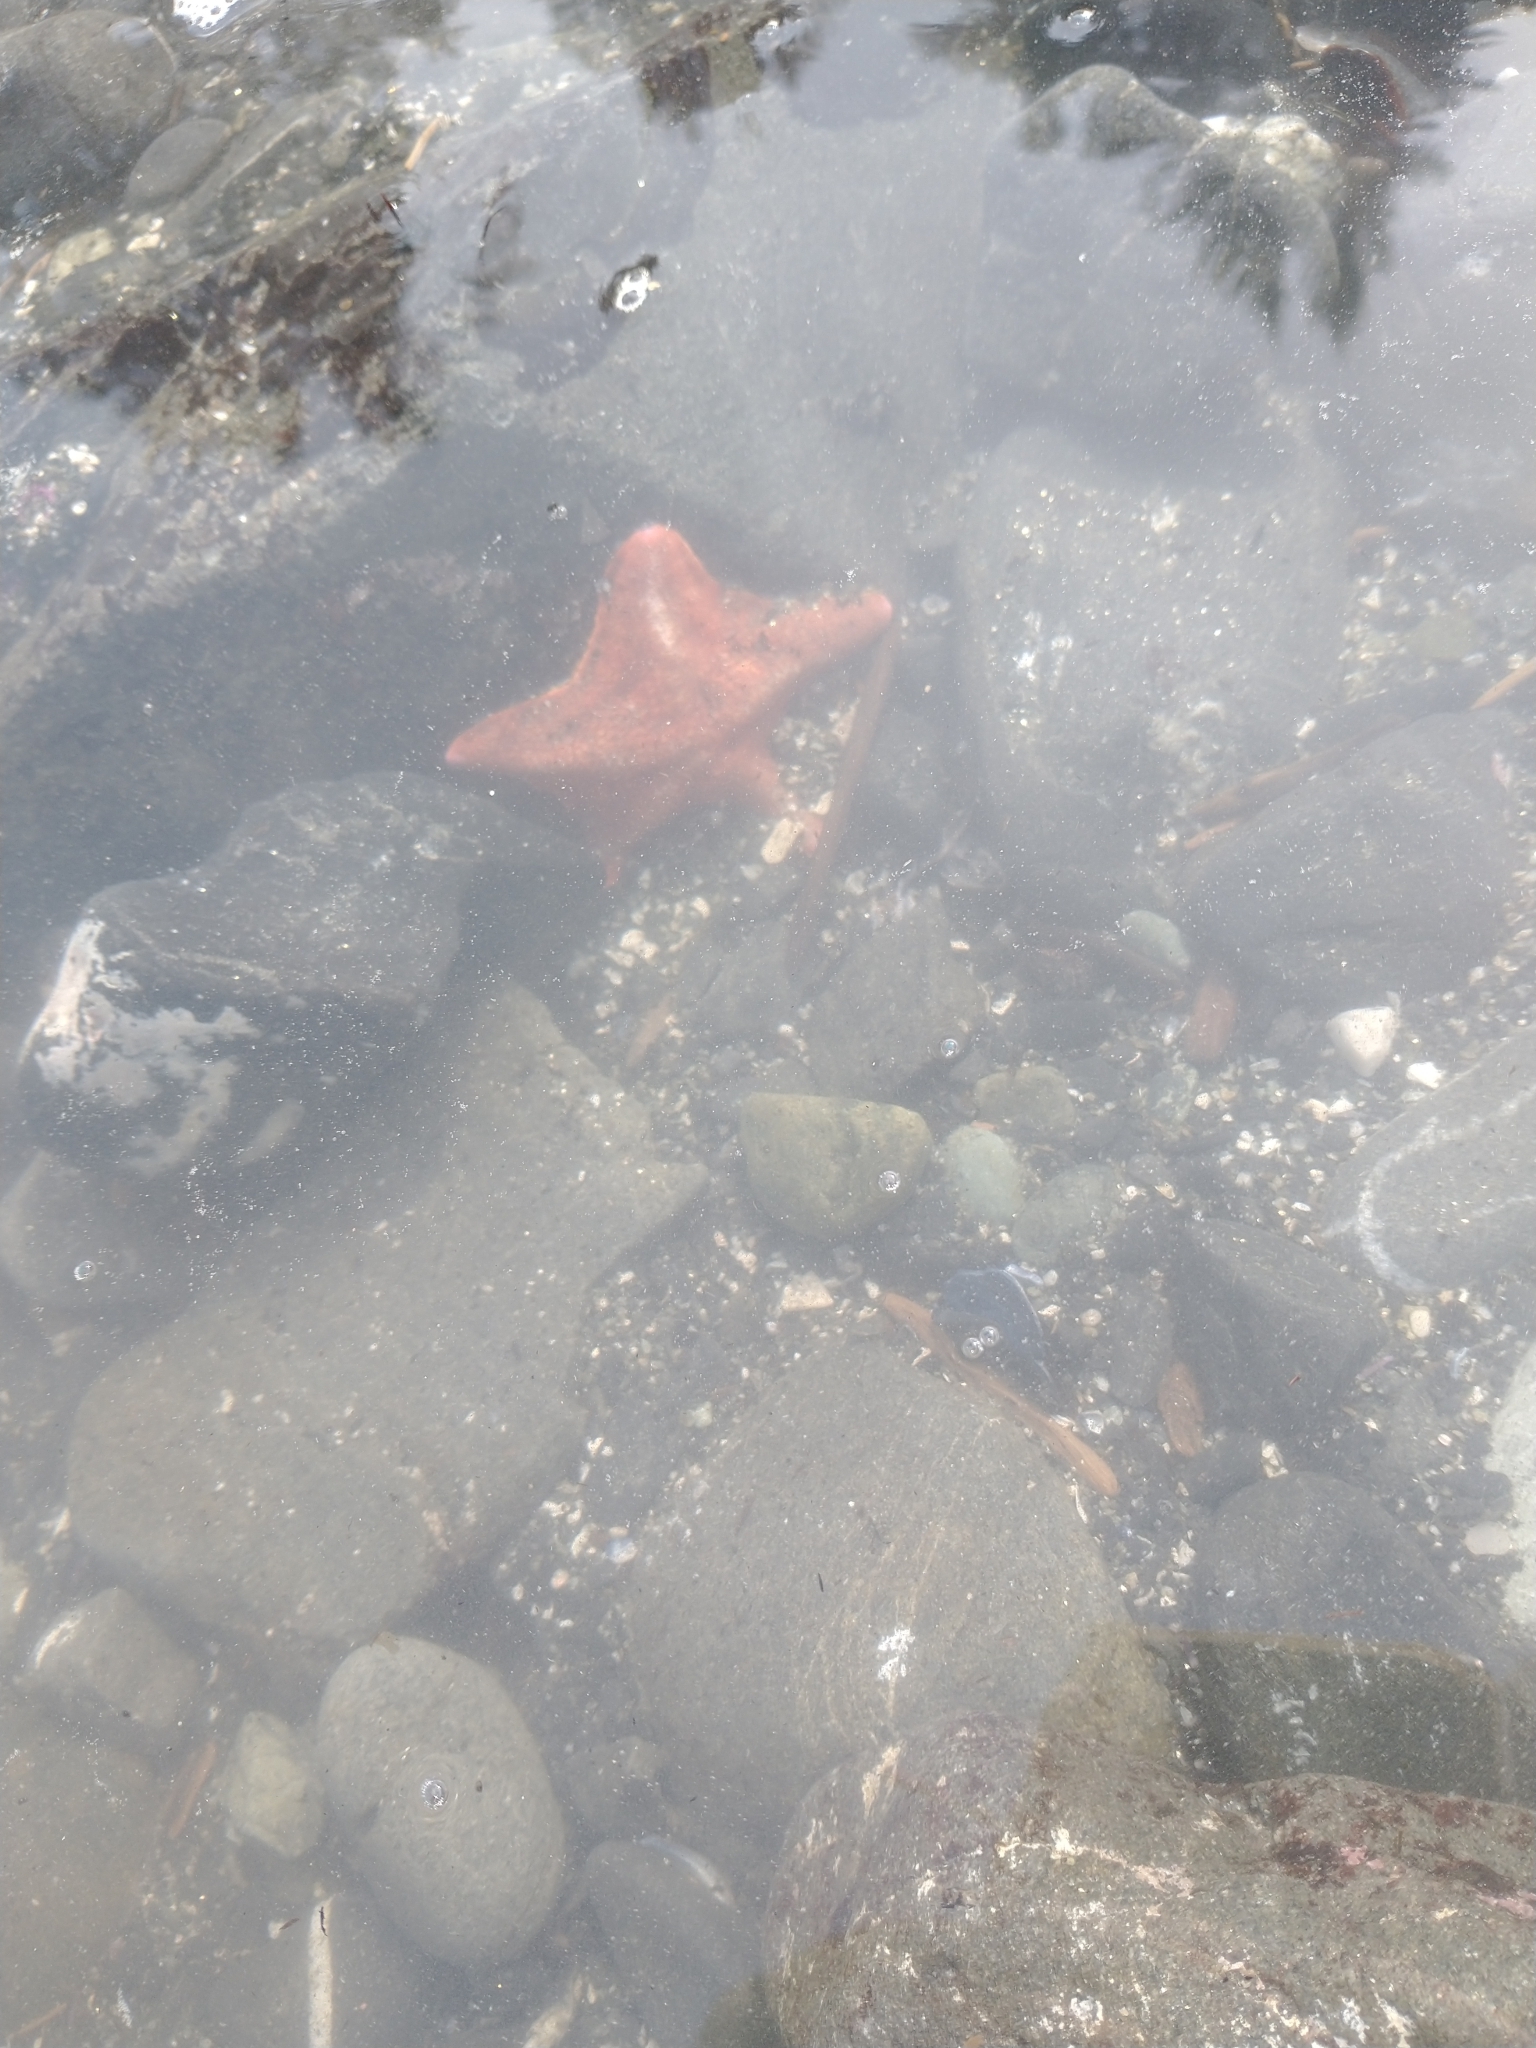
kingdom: Animalia
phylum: Echinodermata
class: Asteroidea
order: Valvatida
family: Asterinidae
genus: Patiria
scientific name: Patiria miniata
